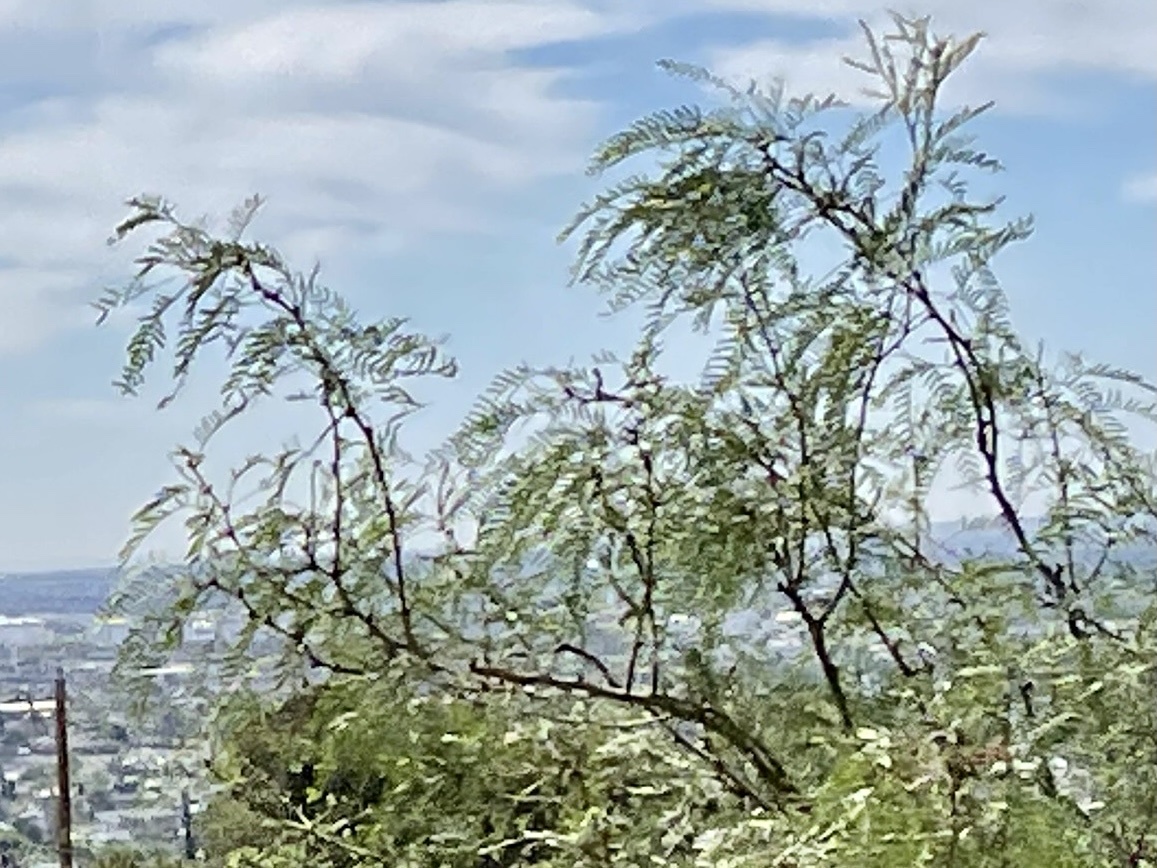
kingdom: Plantae
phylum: Tracheophyta
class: Magnoliopsida
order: Fabales
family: Fabaceae
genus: Prosopis
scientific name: Prosopis glandulosa
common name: Honey mesquite
